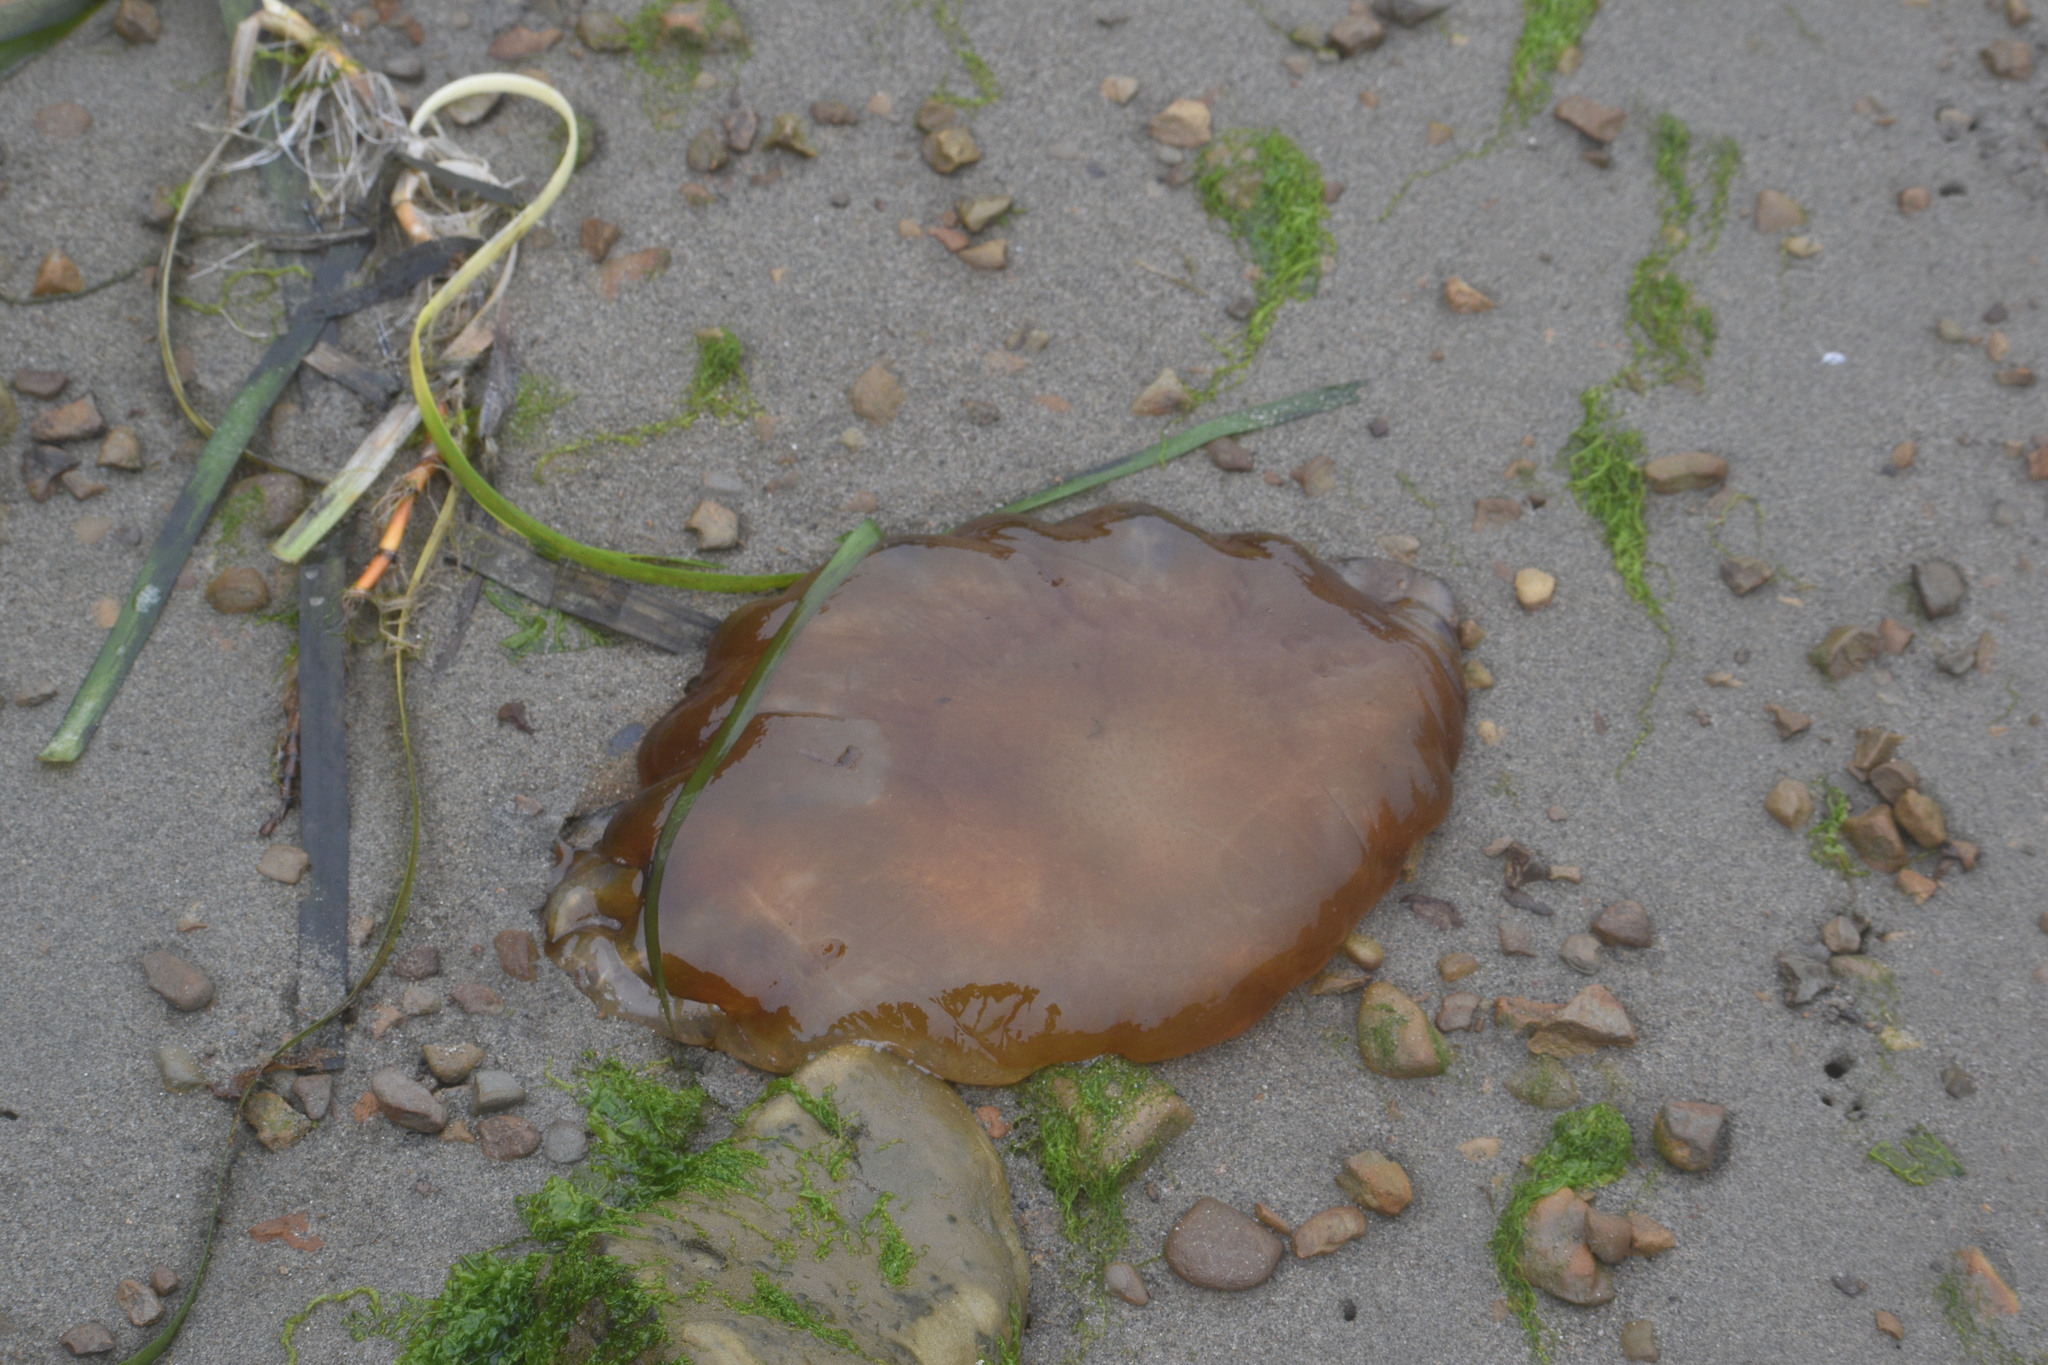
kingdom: Animalia
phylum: Cnidaria
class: Scyphozoa
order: Semaeostomeae
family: Pelagiidae
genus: Chrysaora
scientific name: Chrysaora fuscescens
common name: Sea nettle
